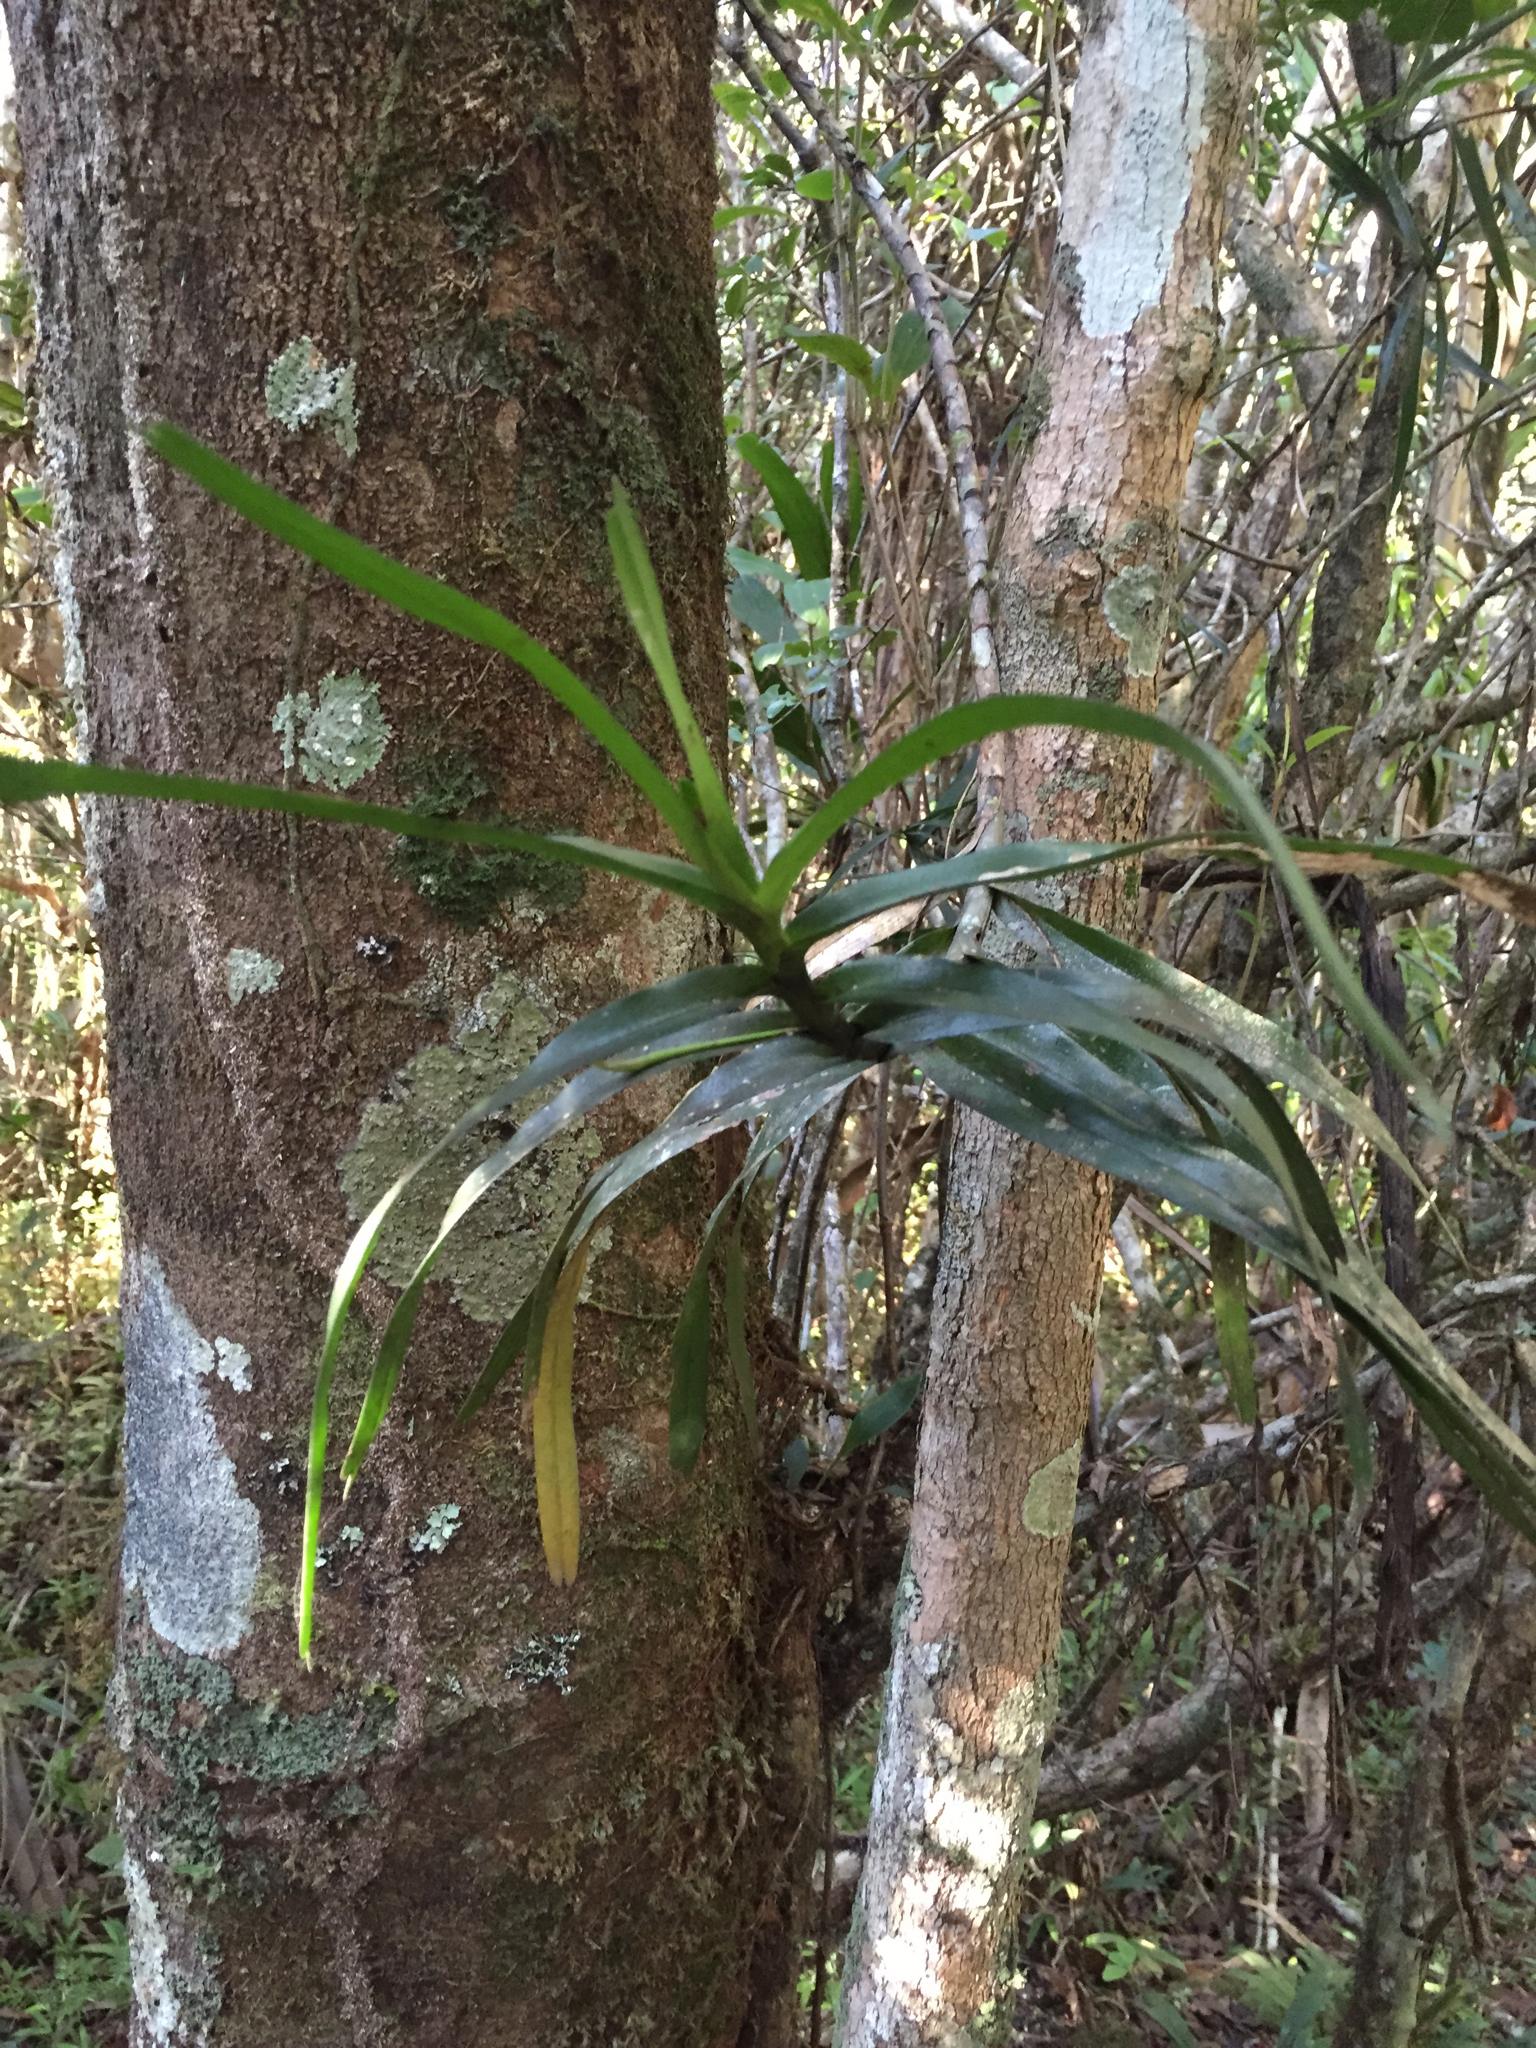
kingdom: Plantae
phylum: Tracheophyta
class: Liliopsida
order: Asparagales
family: Orchidaceae
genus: Angraecum
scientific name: Angraecum viguieri
